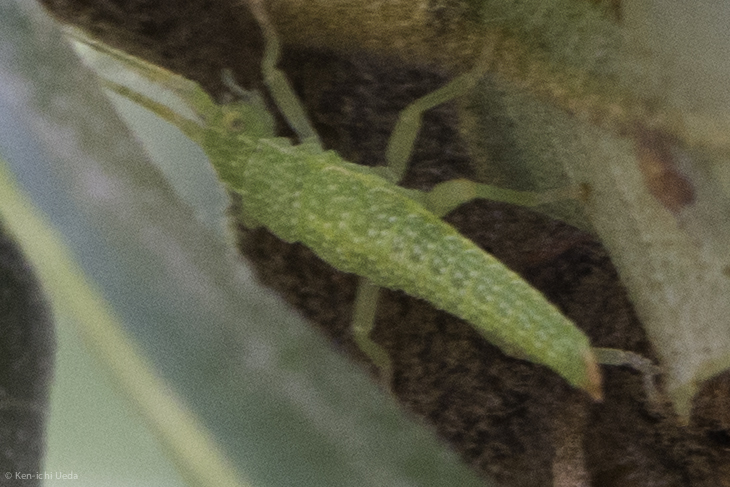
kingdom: Animalia
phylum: Arthropoda
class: Insecta
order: Phasmida
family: Timematidae
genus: Timema
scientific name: Timema californicum
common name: California timema
